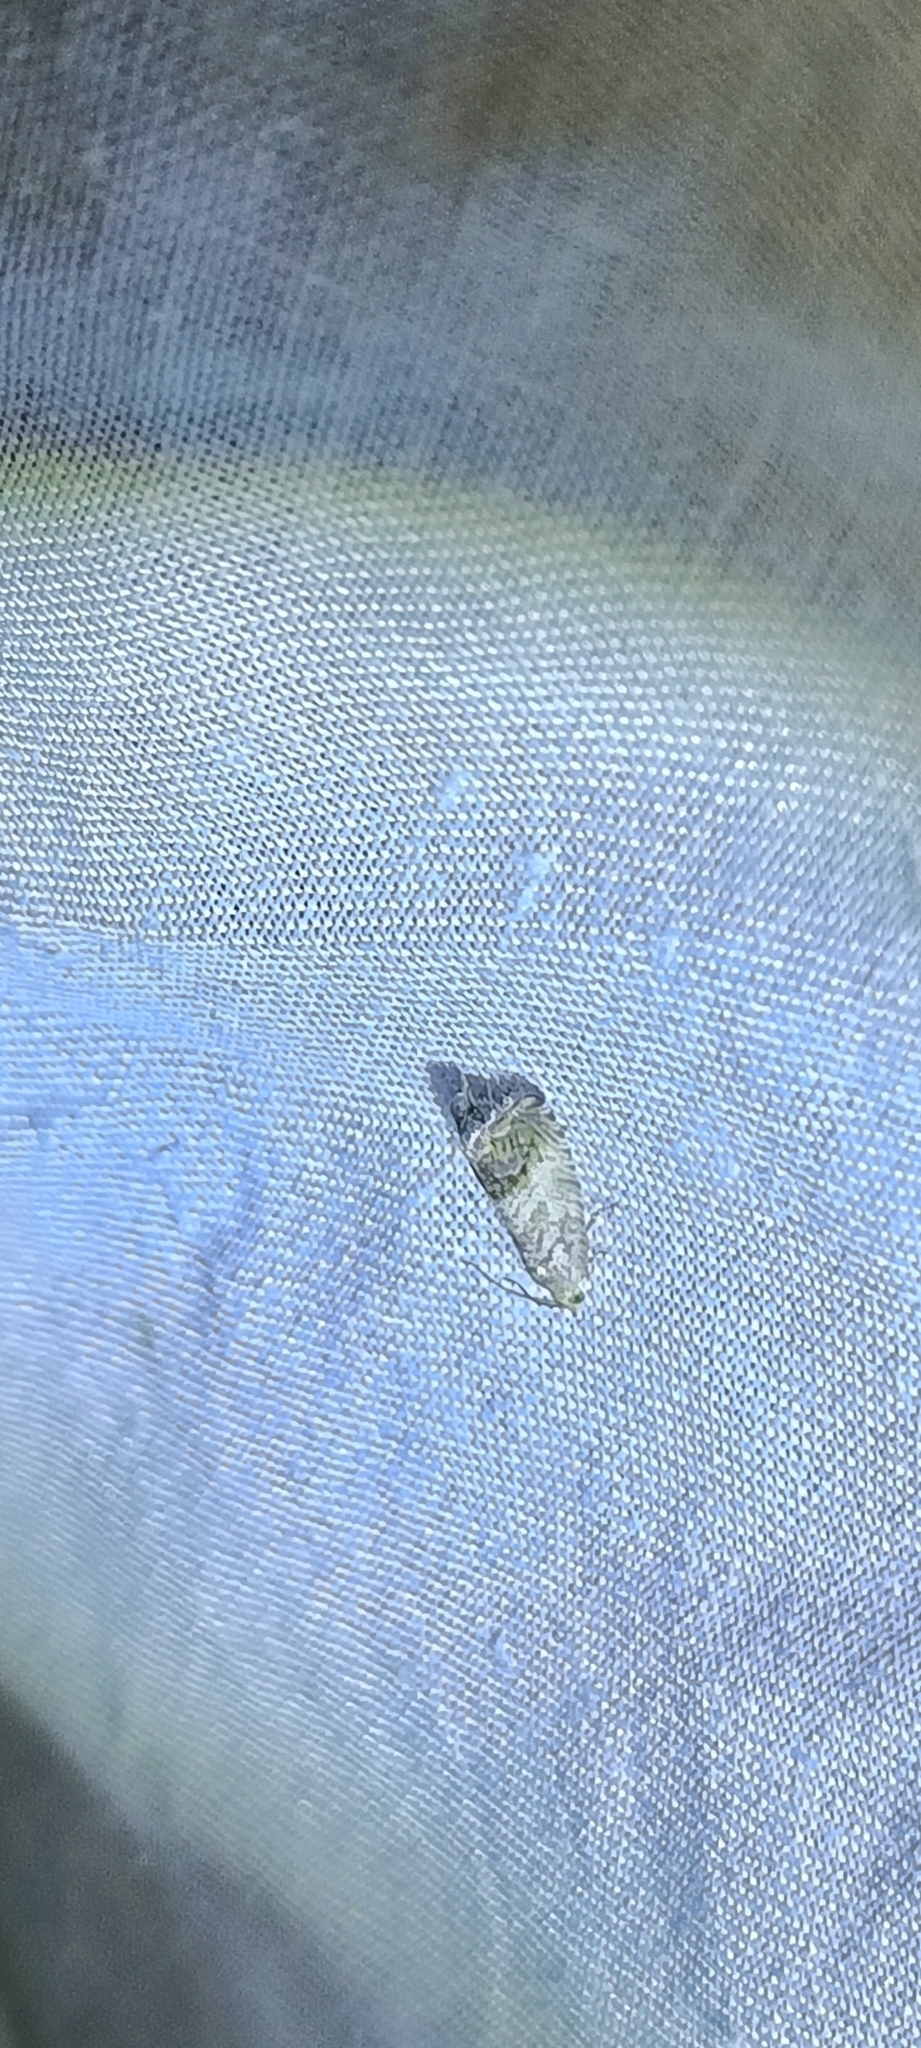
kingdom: Animalia
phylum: Arthropoda
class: Insecta
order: Lepidoptera
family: Tortricidae
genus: Cydia
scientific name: Cydia fagiglandana
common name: Large beech piercer
